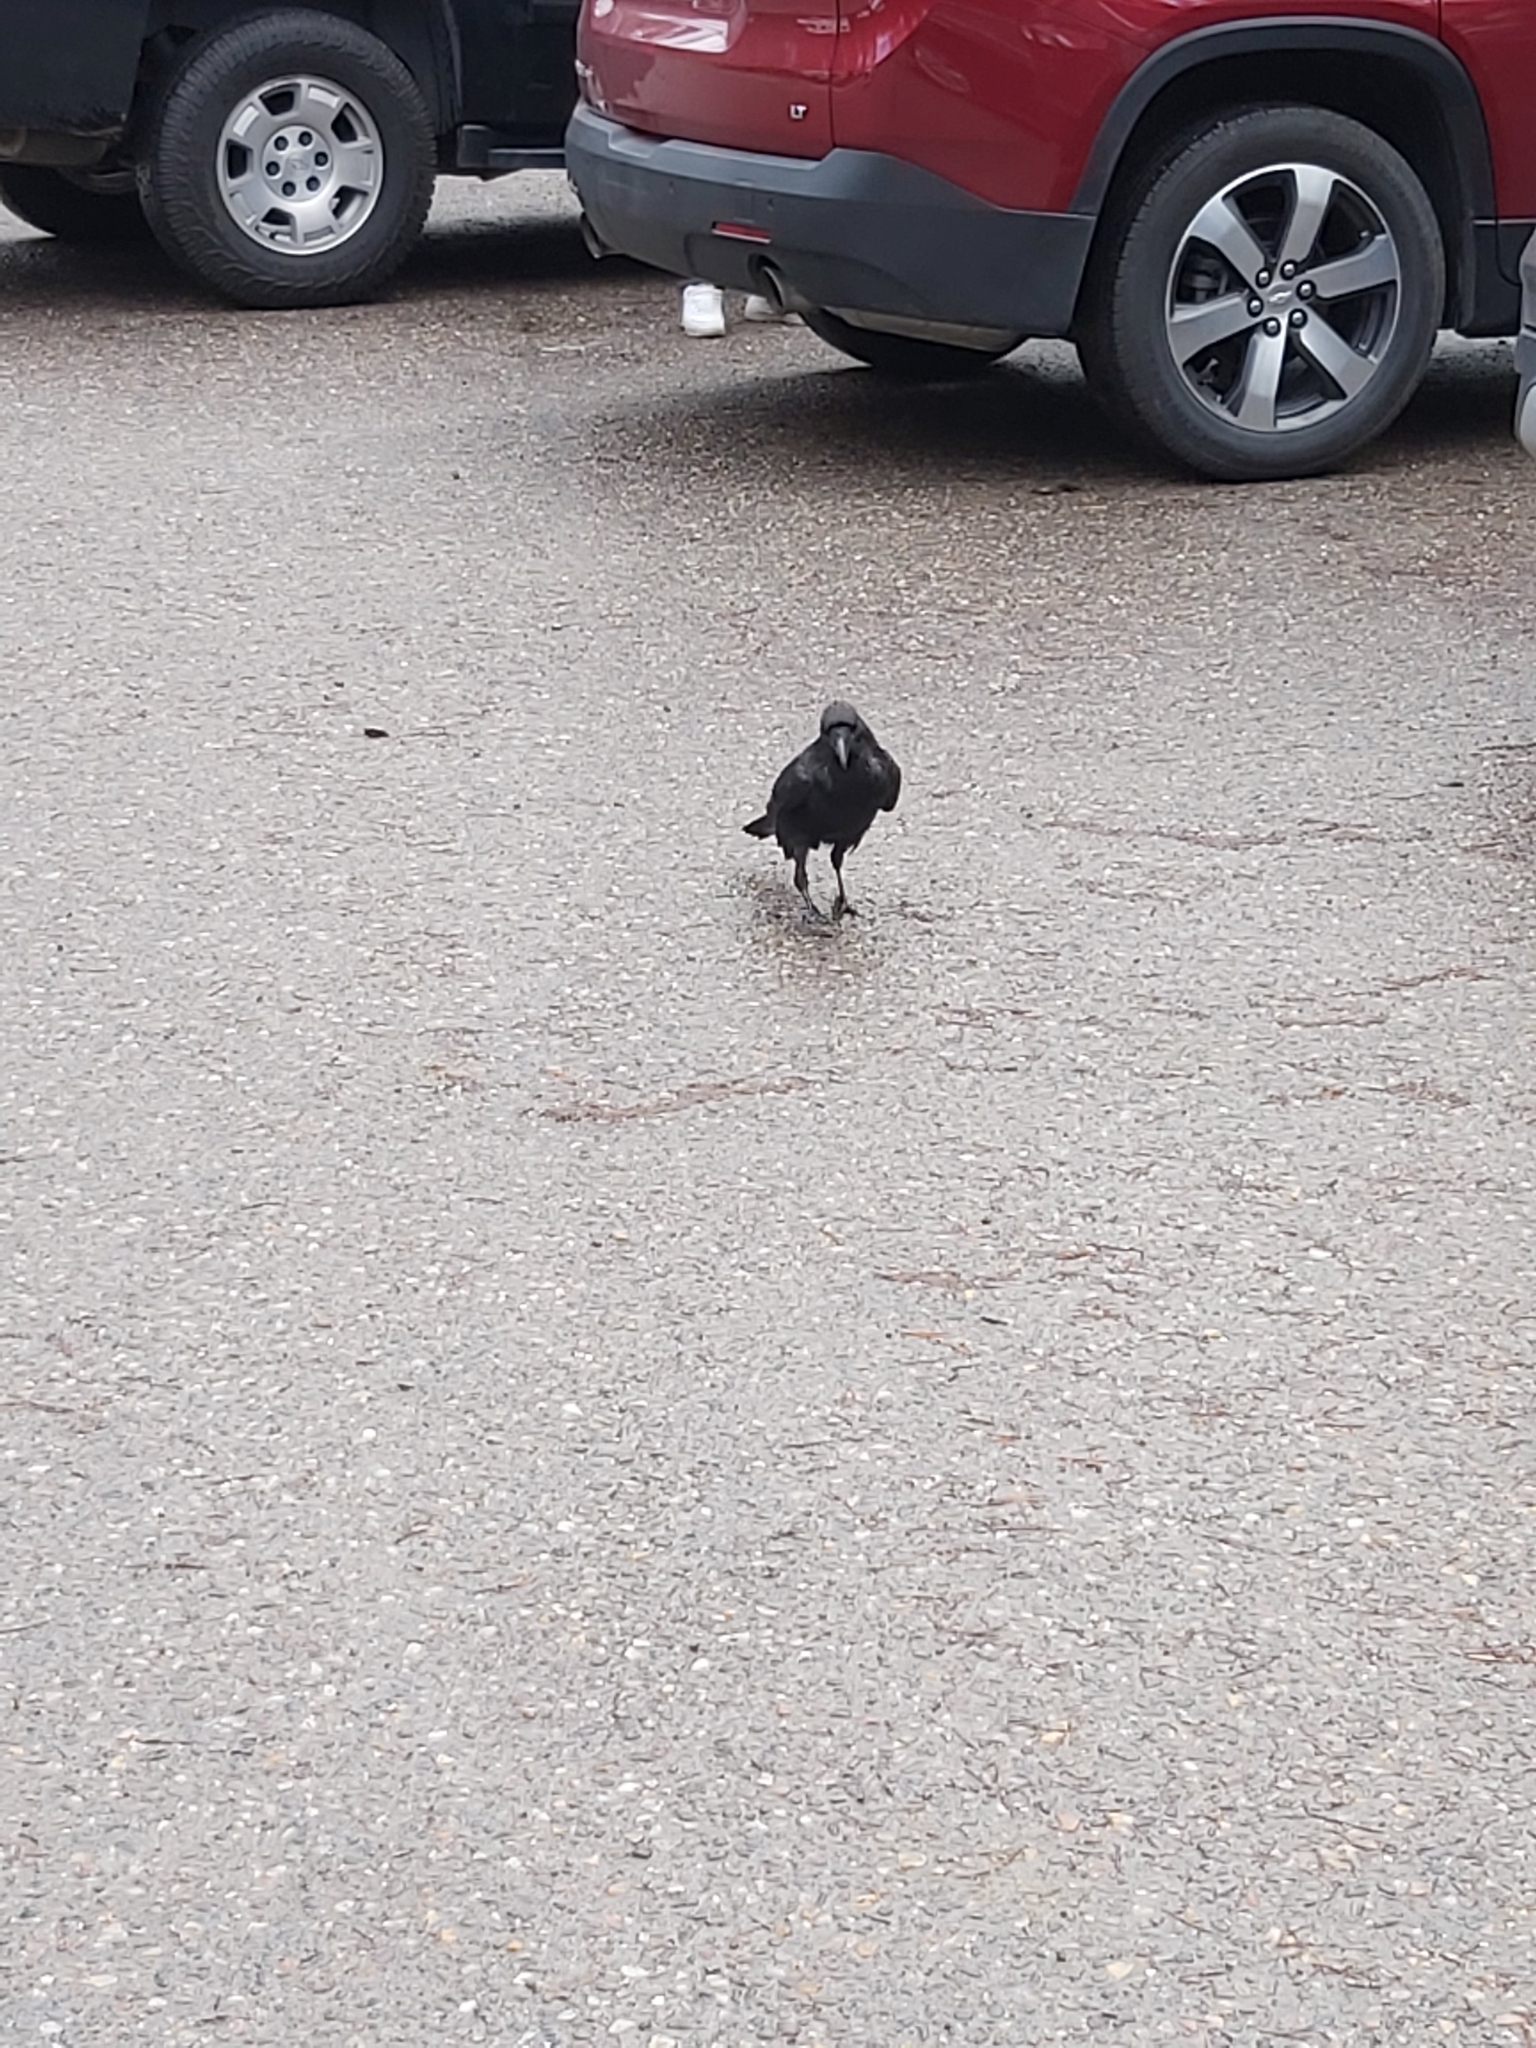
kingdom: Animalia
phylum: Chordata
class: Aves
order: Passeriformes
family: Corvidae
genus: Corvus
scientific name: Corvus corax
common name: Common raven
